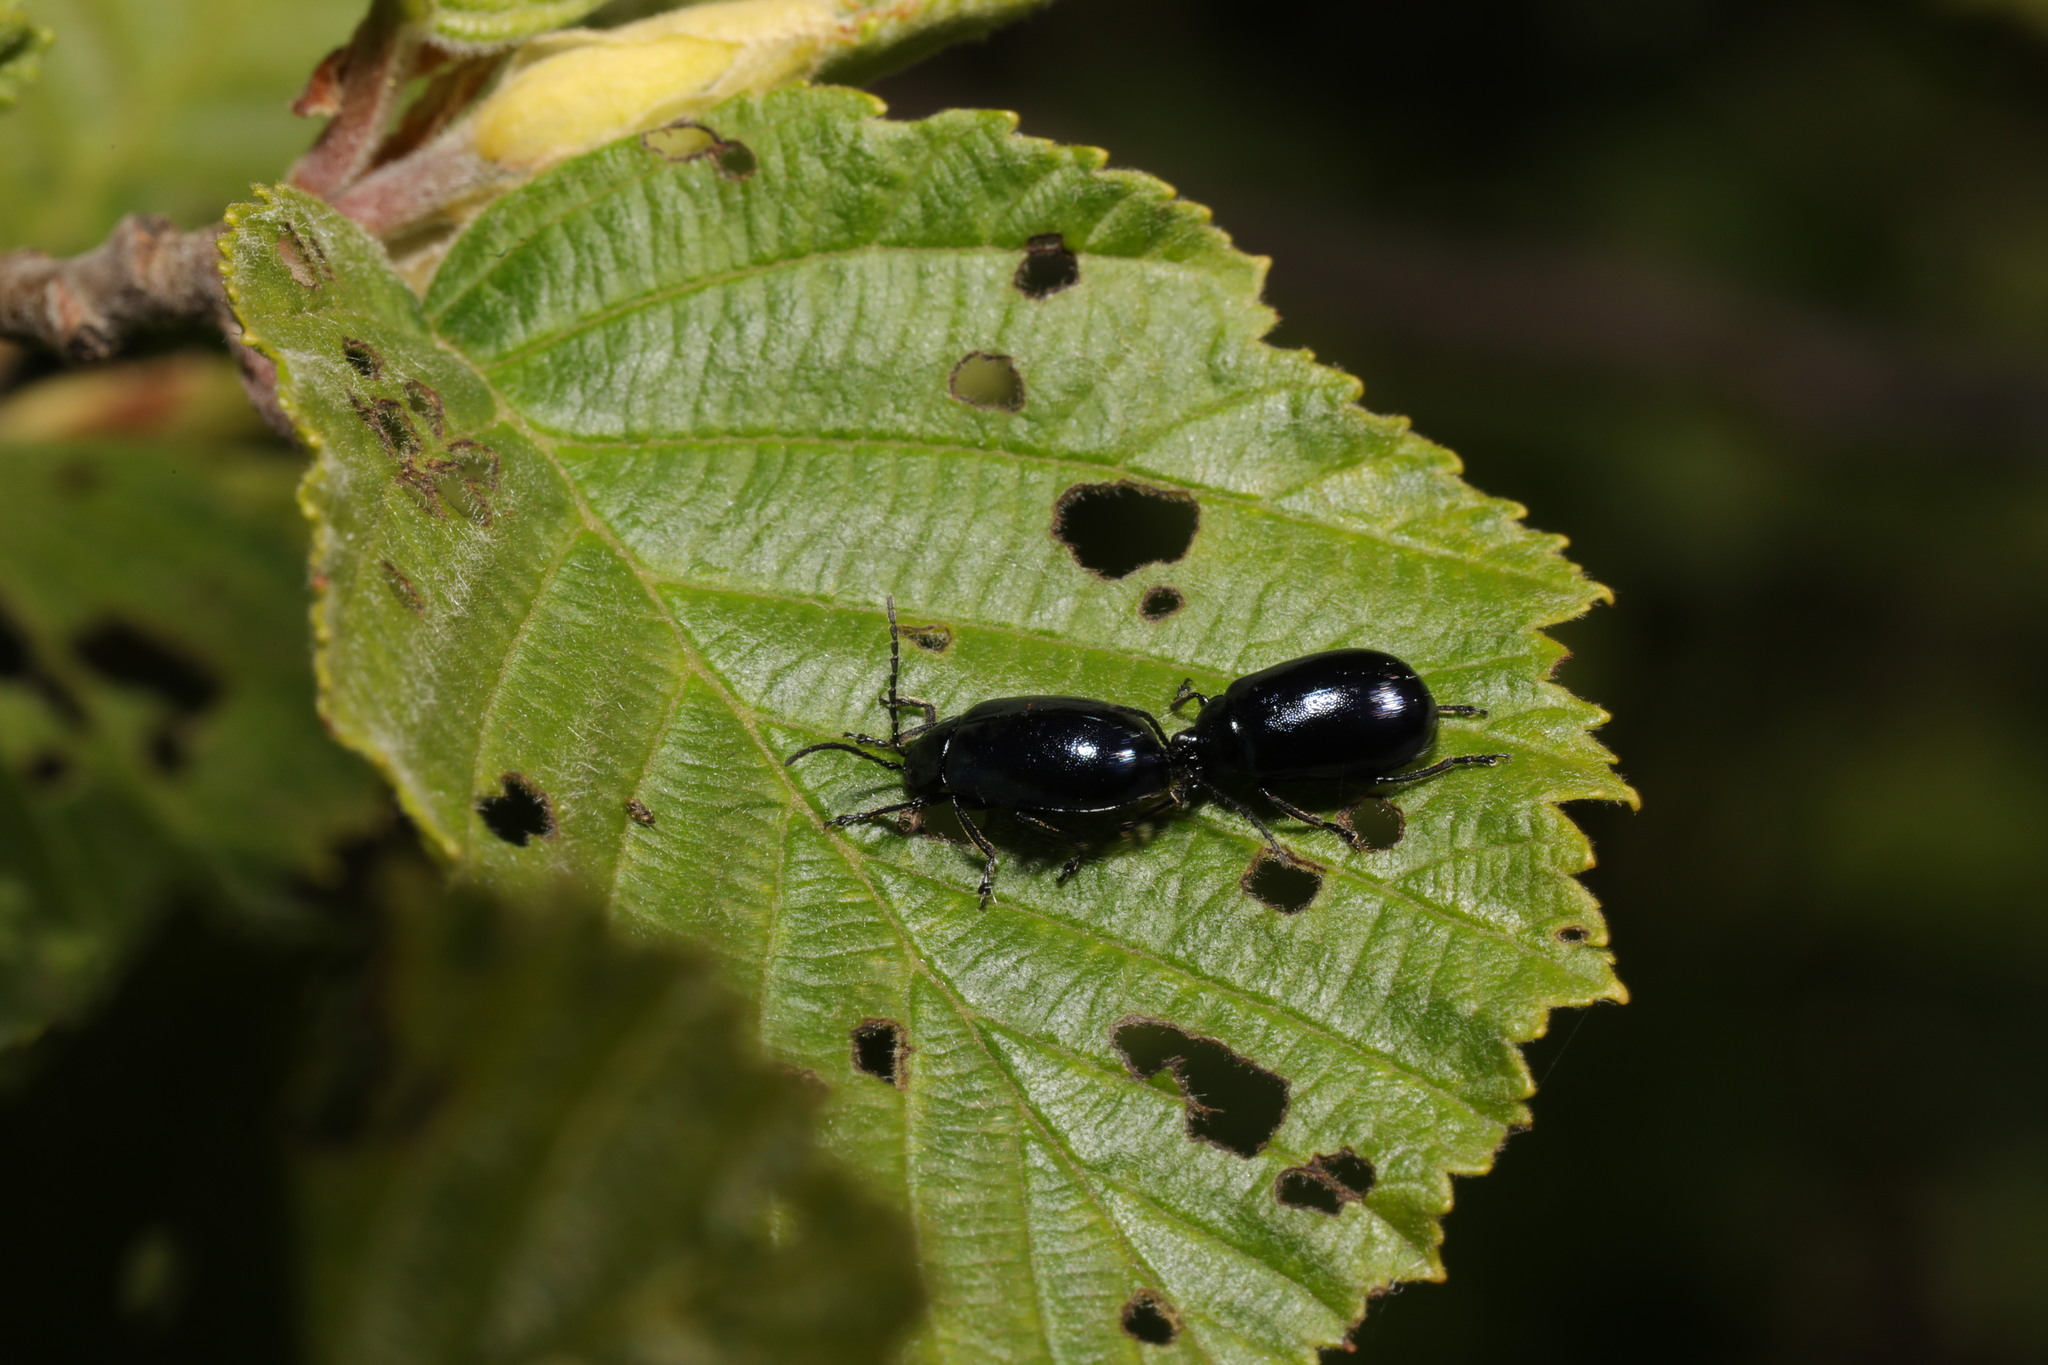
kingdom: Animalia
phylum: Arthropoda
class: Insecta
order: Coleoptera
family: Chrysomelidae
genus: Agelastica
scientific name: Agelastica alni
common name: Alder leaf beetle
